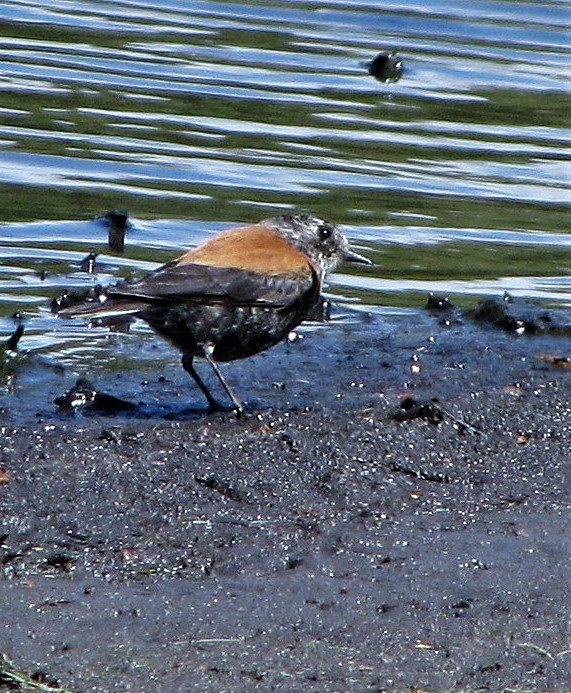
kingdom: Animalia
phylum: Chordata
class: Aves
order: Passeriformes
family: Tyrannidae
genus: Lessonia
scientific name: Lessonia rufa
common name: Austral negrito
